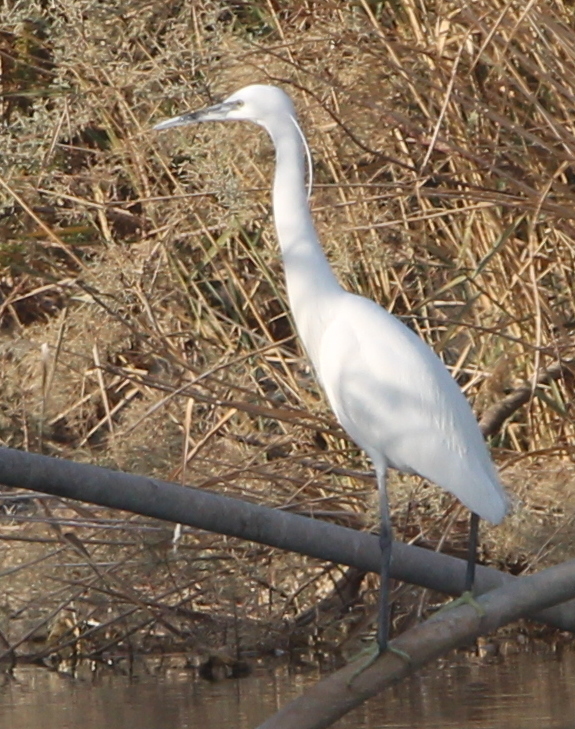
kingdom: Animalia
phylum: Chordata
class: Aves
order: Pelecaniformes
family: Ardeidae
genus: Egretta
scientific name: Egretta garzetta
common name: Little egret
